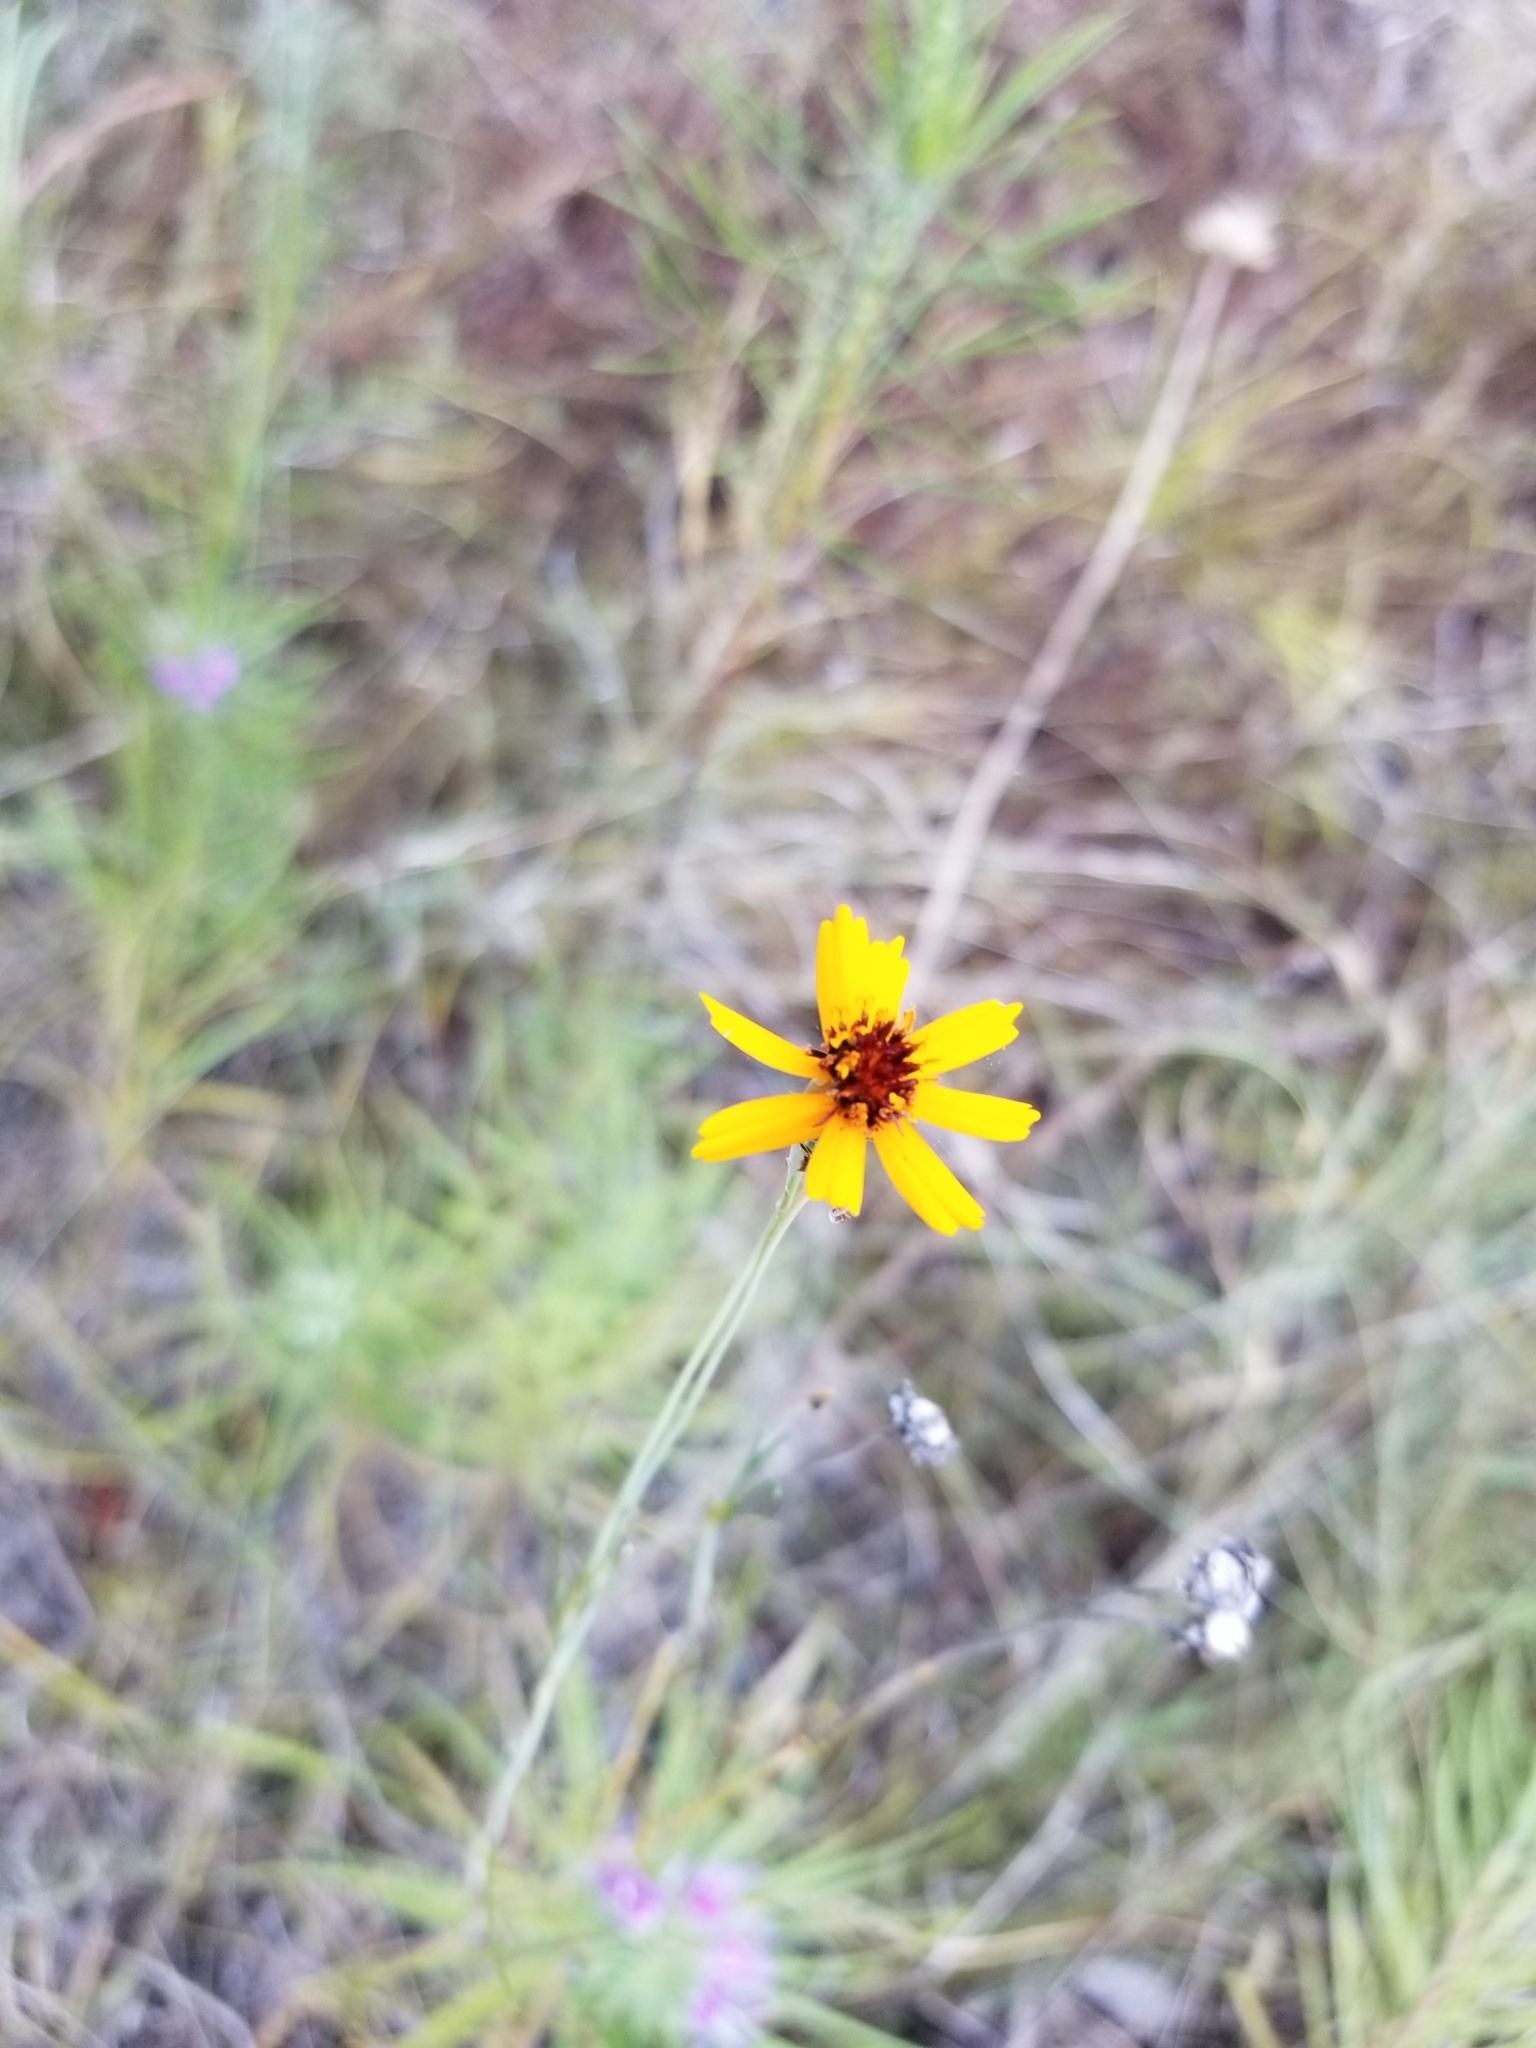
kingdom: Plantae
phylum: Tracheophyta
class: Magnoliopsida
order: Asterales
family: Asteraceae
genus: Thelesperma
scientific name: Thelesperma filifolium
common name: Stiff greenthread
